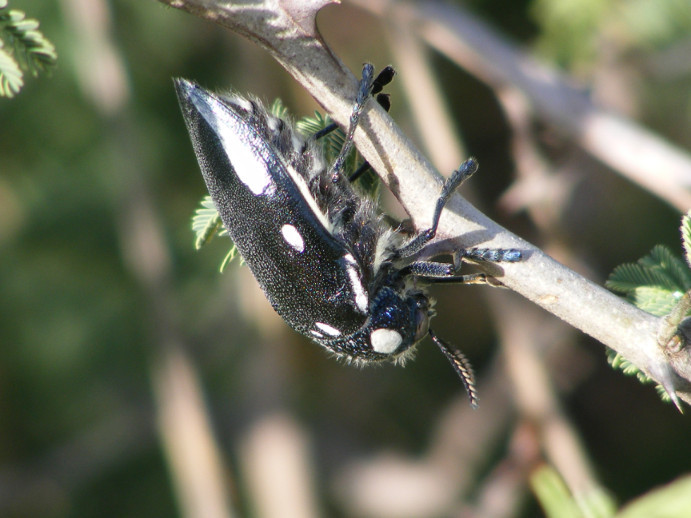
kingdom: Animalia
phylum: Arthropoda
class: Insecta
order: Coleoptera
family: Buprestidae
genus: Sternocera
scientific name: Sternocera orissa
